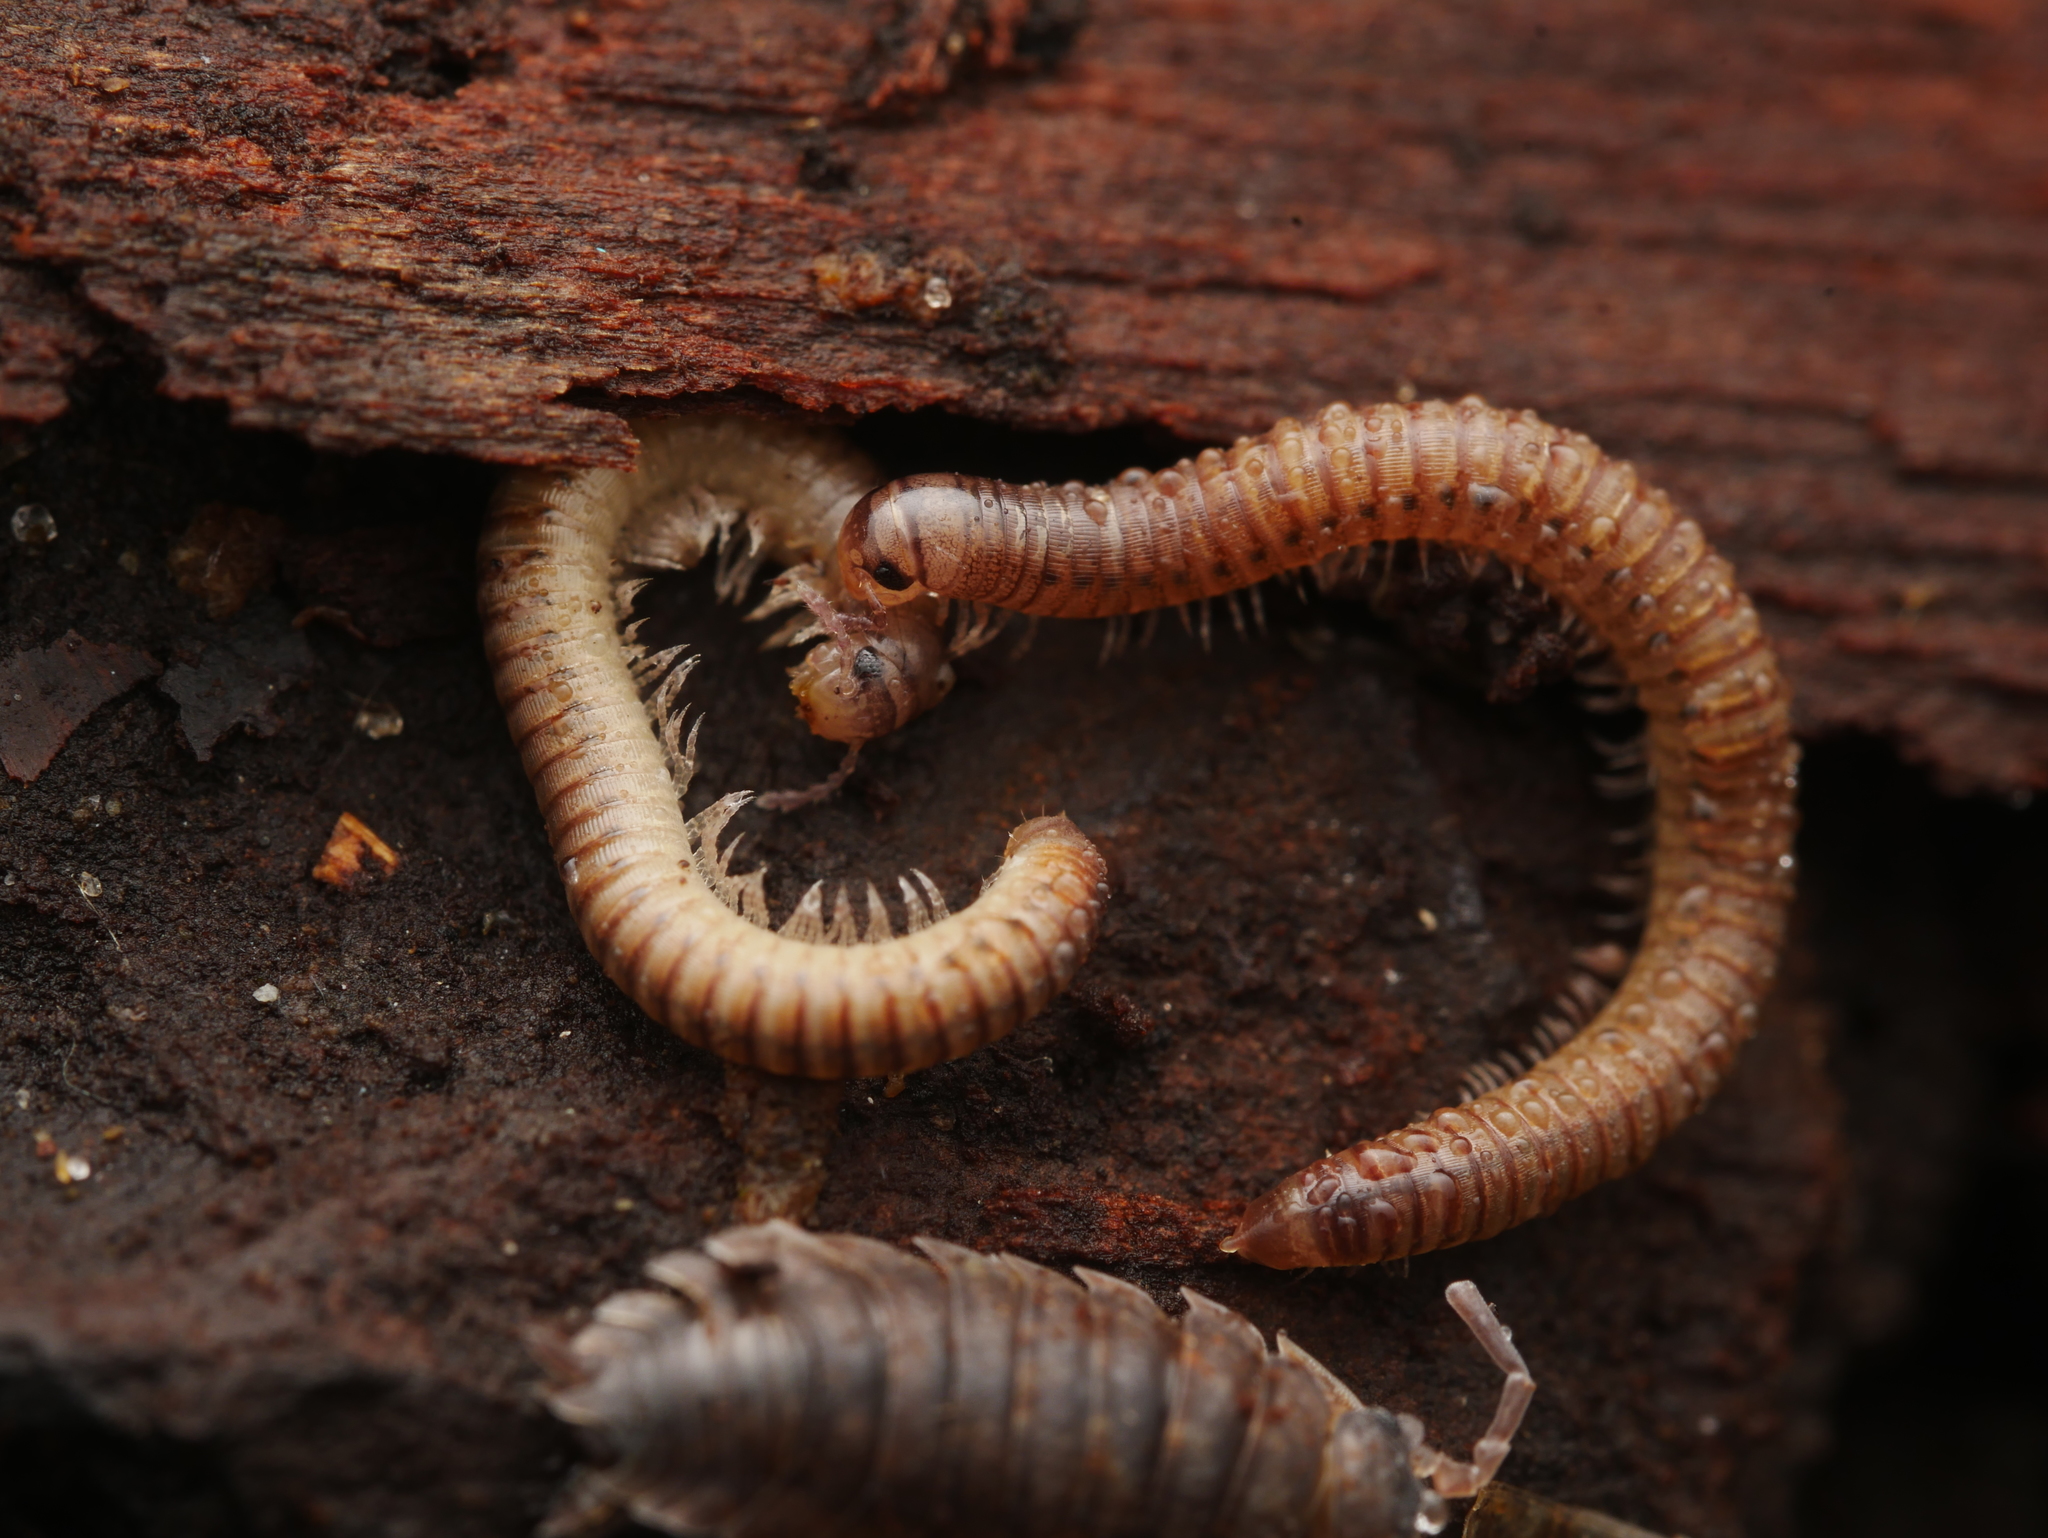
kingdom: Animalia
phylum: Arthropoda
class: Diplopoda
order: Julida
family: Julidae
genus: Cylindroiulus
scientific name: Cylindroiulus punctatus
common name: Blunt-tailed millipede
